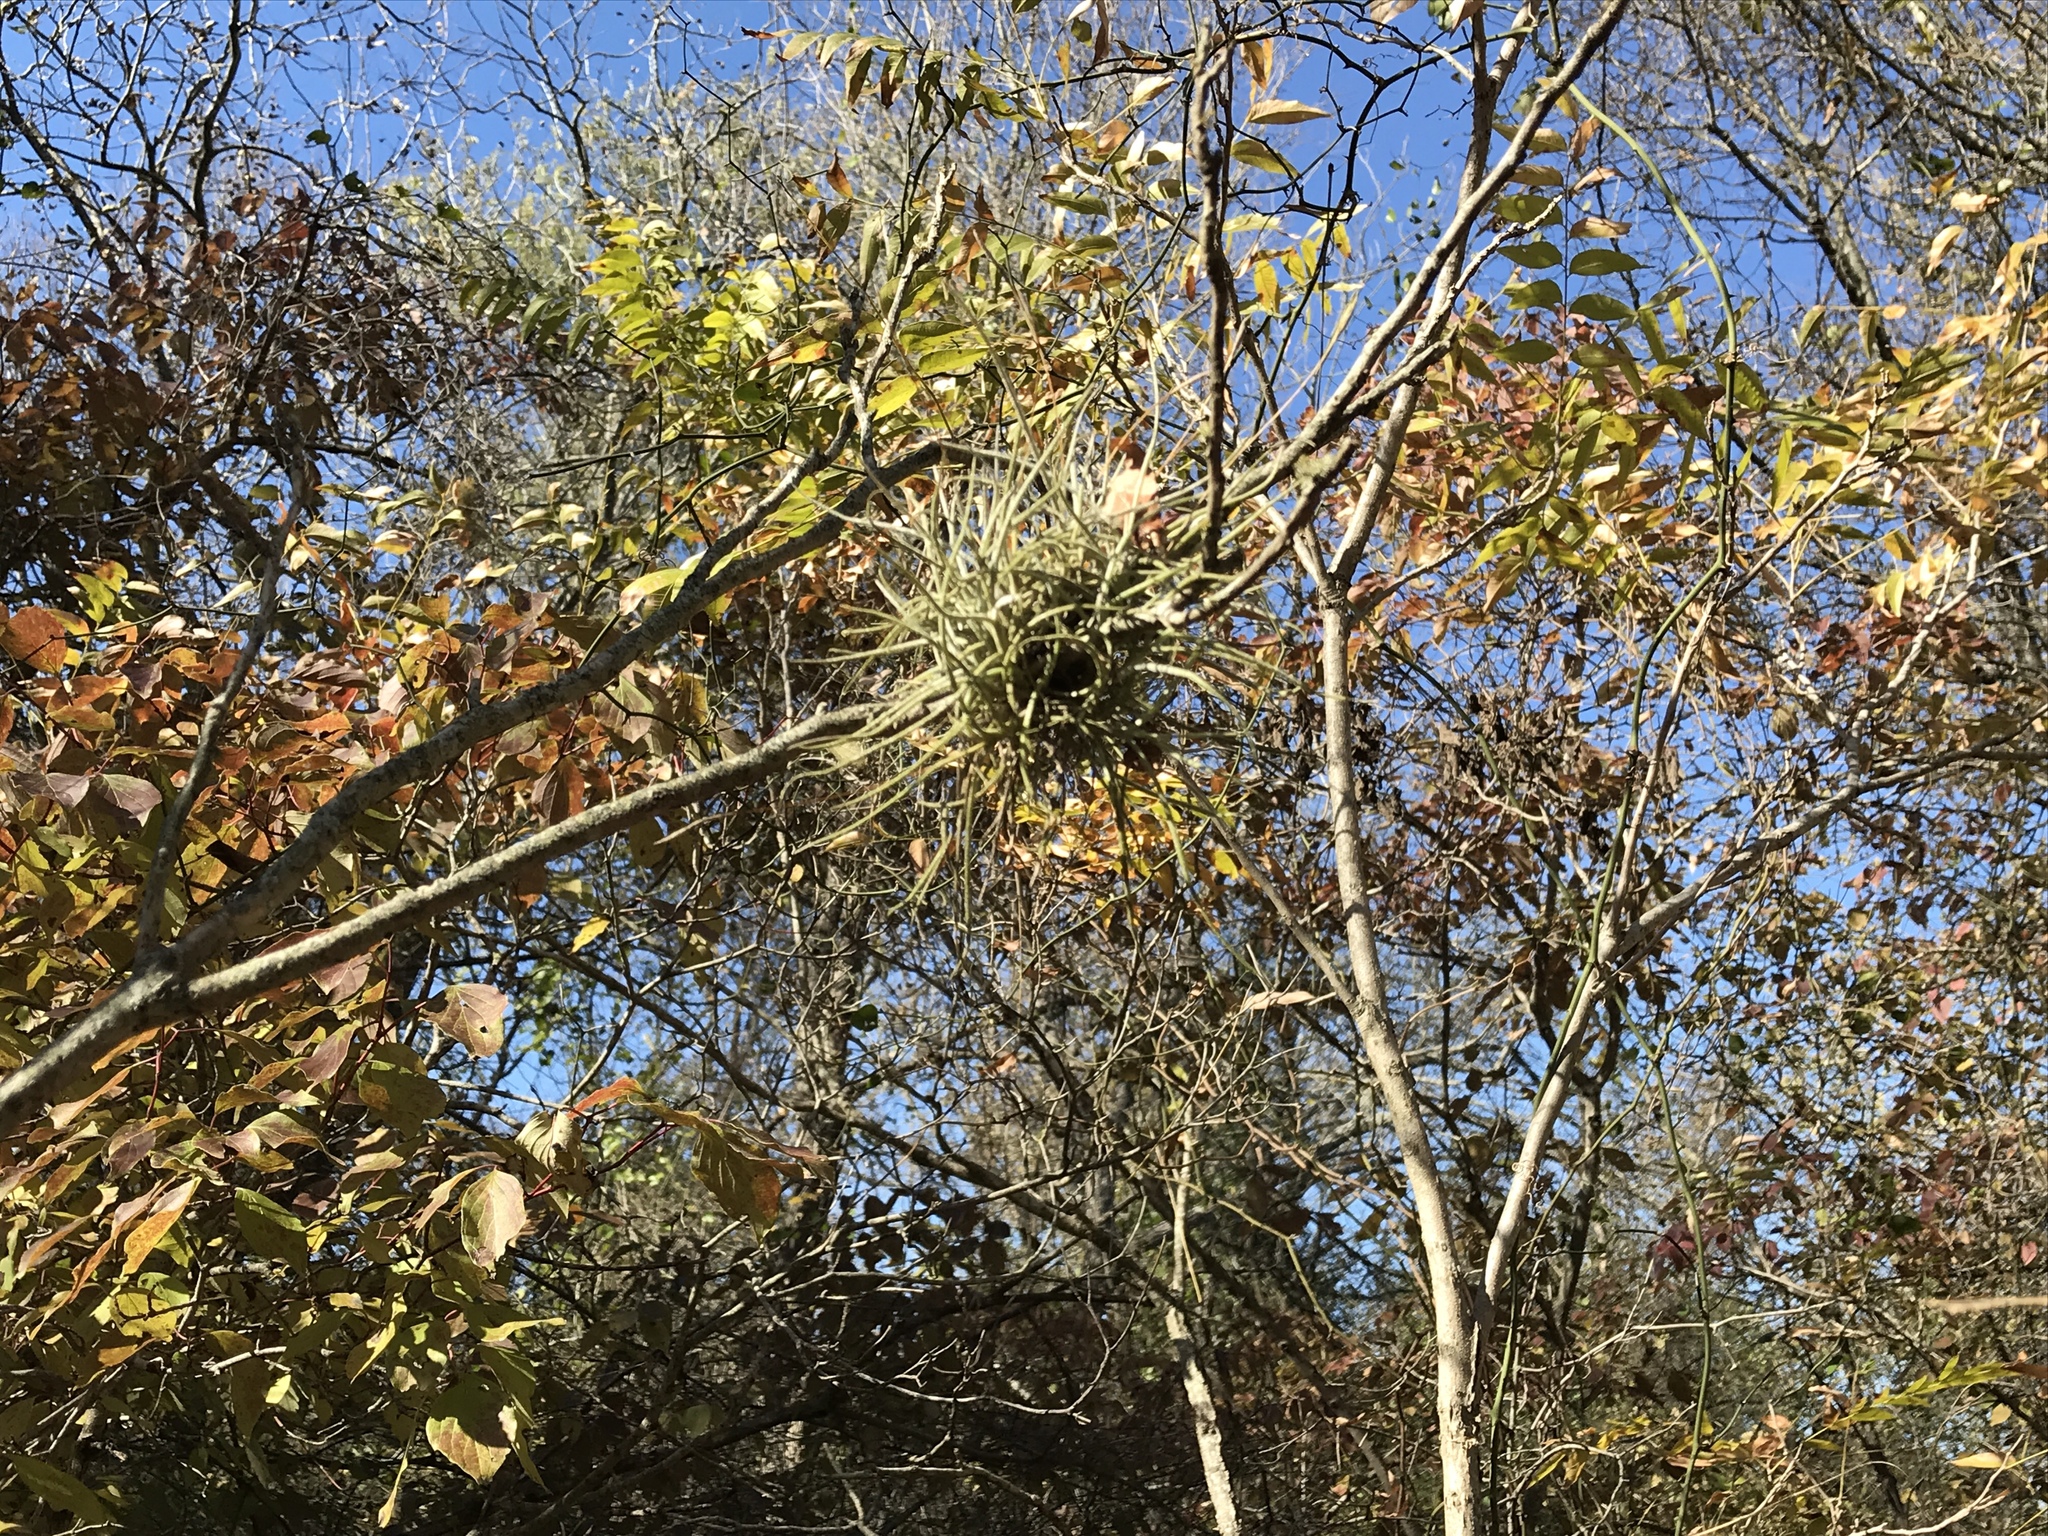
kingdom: Plantae
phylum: Tracheophyta
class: Liliopsida
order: Poales
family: Bromeliaceae
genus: Tillandsia
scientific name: Tillandsia recurvata
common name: Small ballmoss
